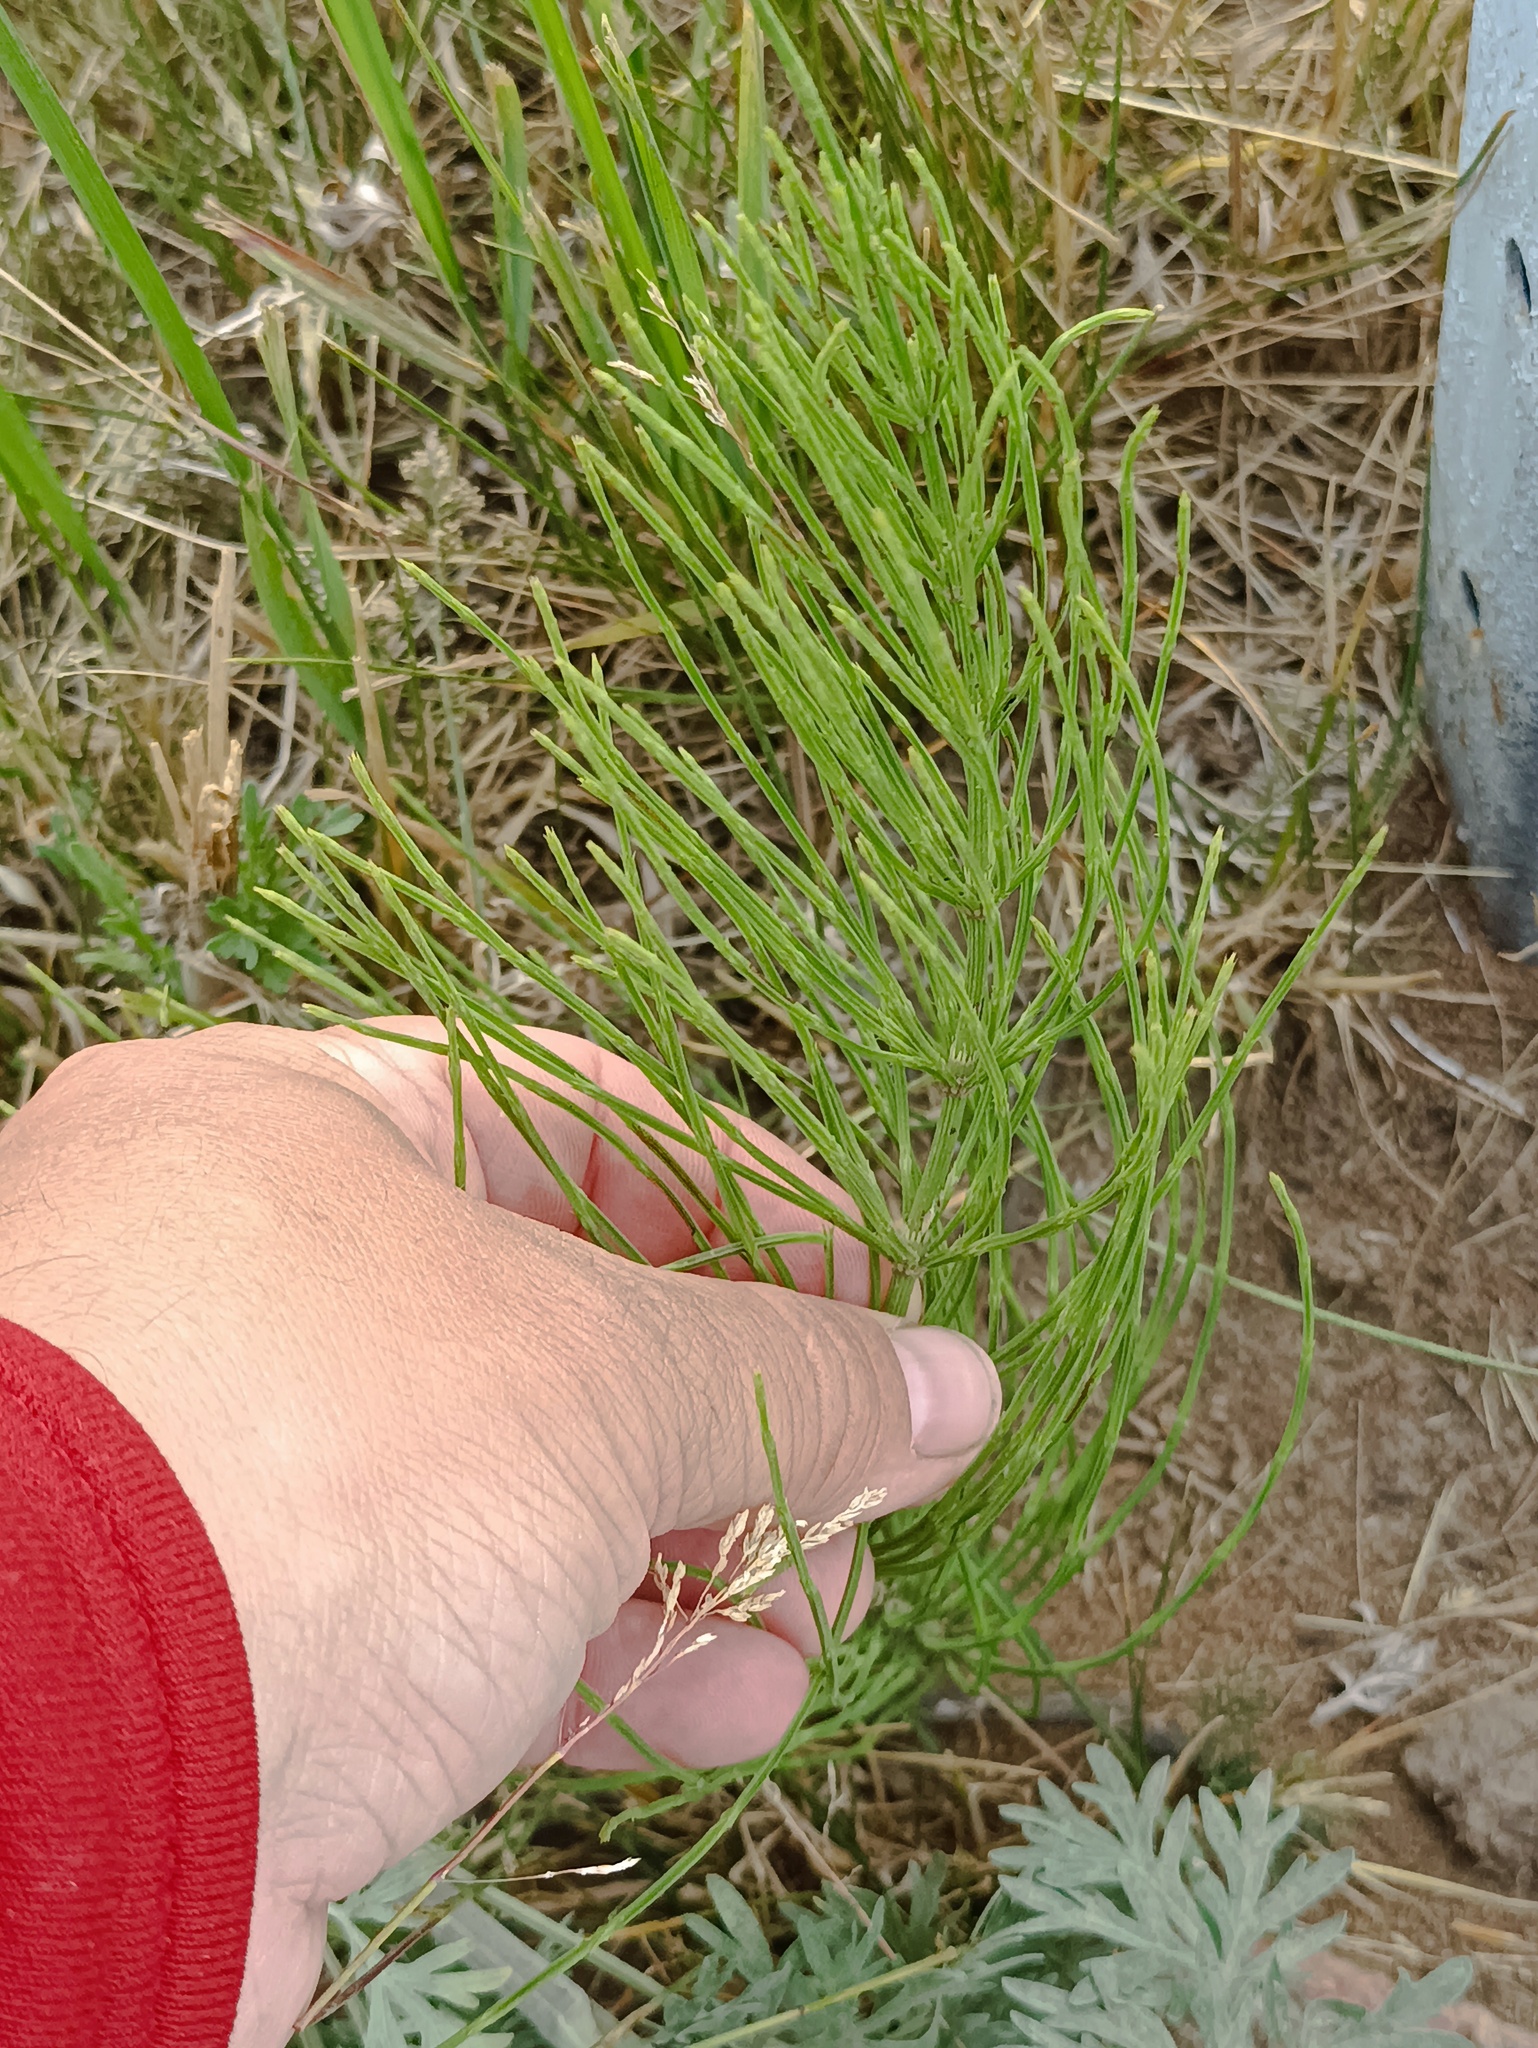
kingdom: Plantae
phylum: Tracheophyta
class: Polypodiopsida
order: Equisetales
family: Equisetaceae
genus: Equisetum
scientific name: Equisetum arvense
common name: Field horsetail
